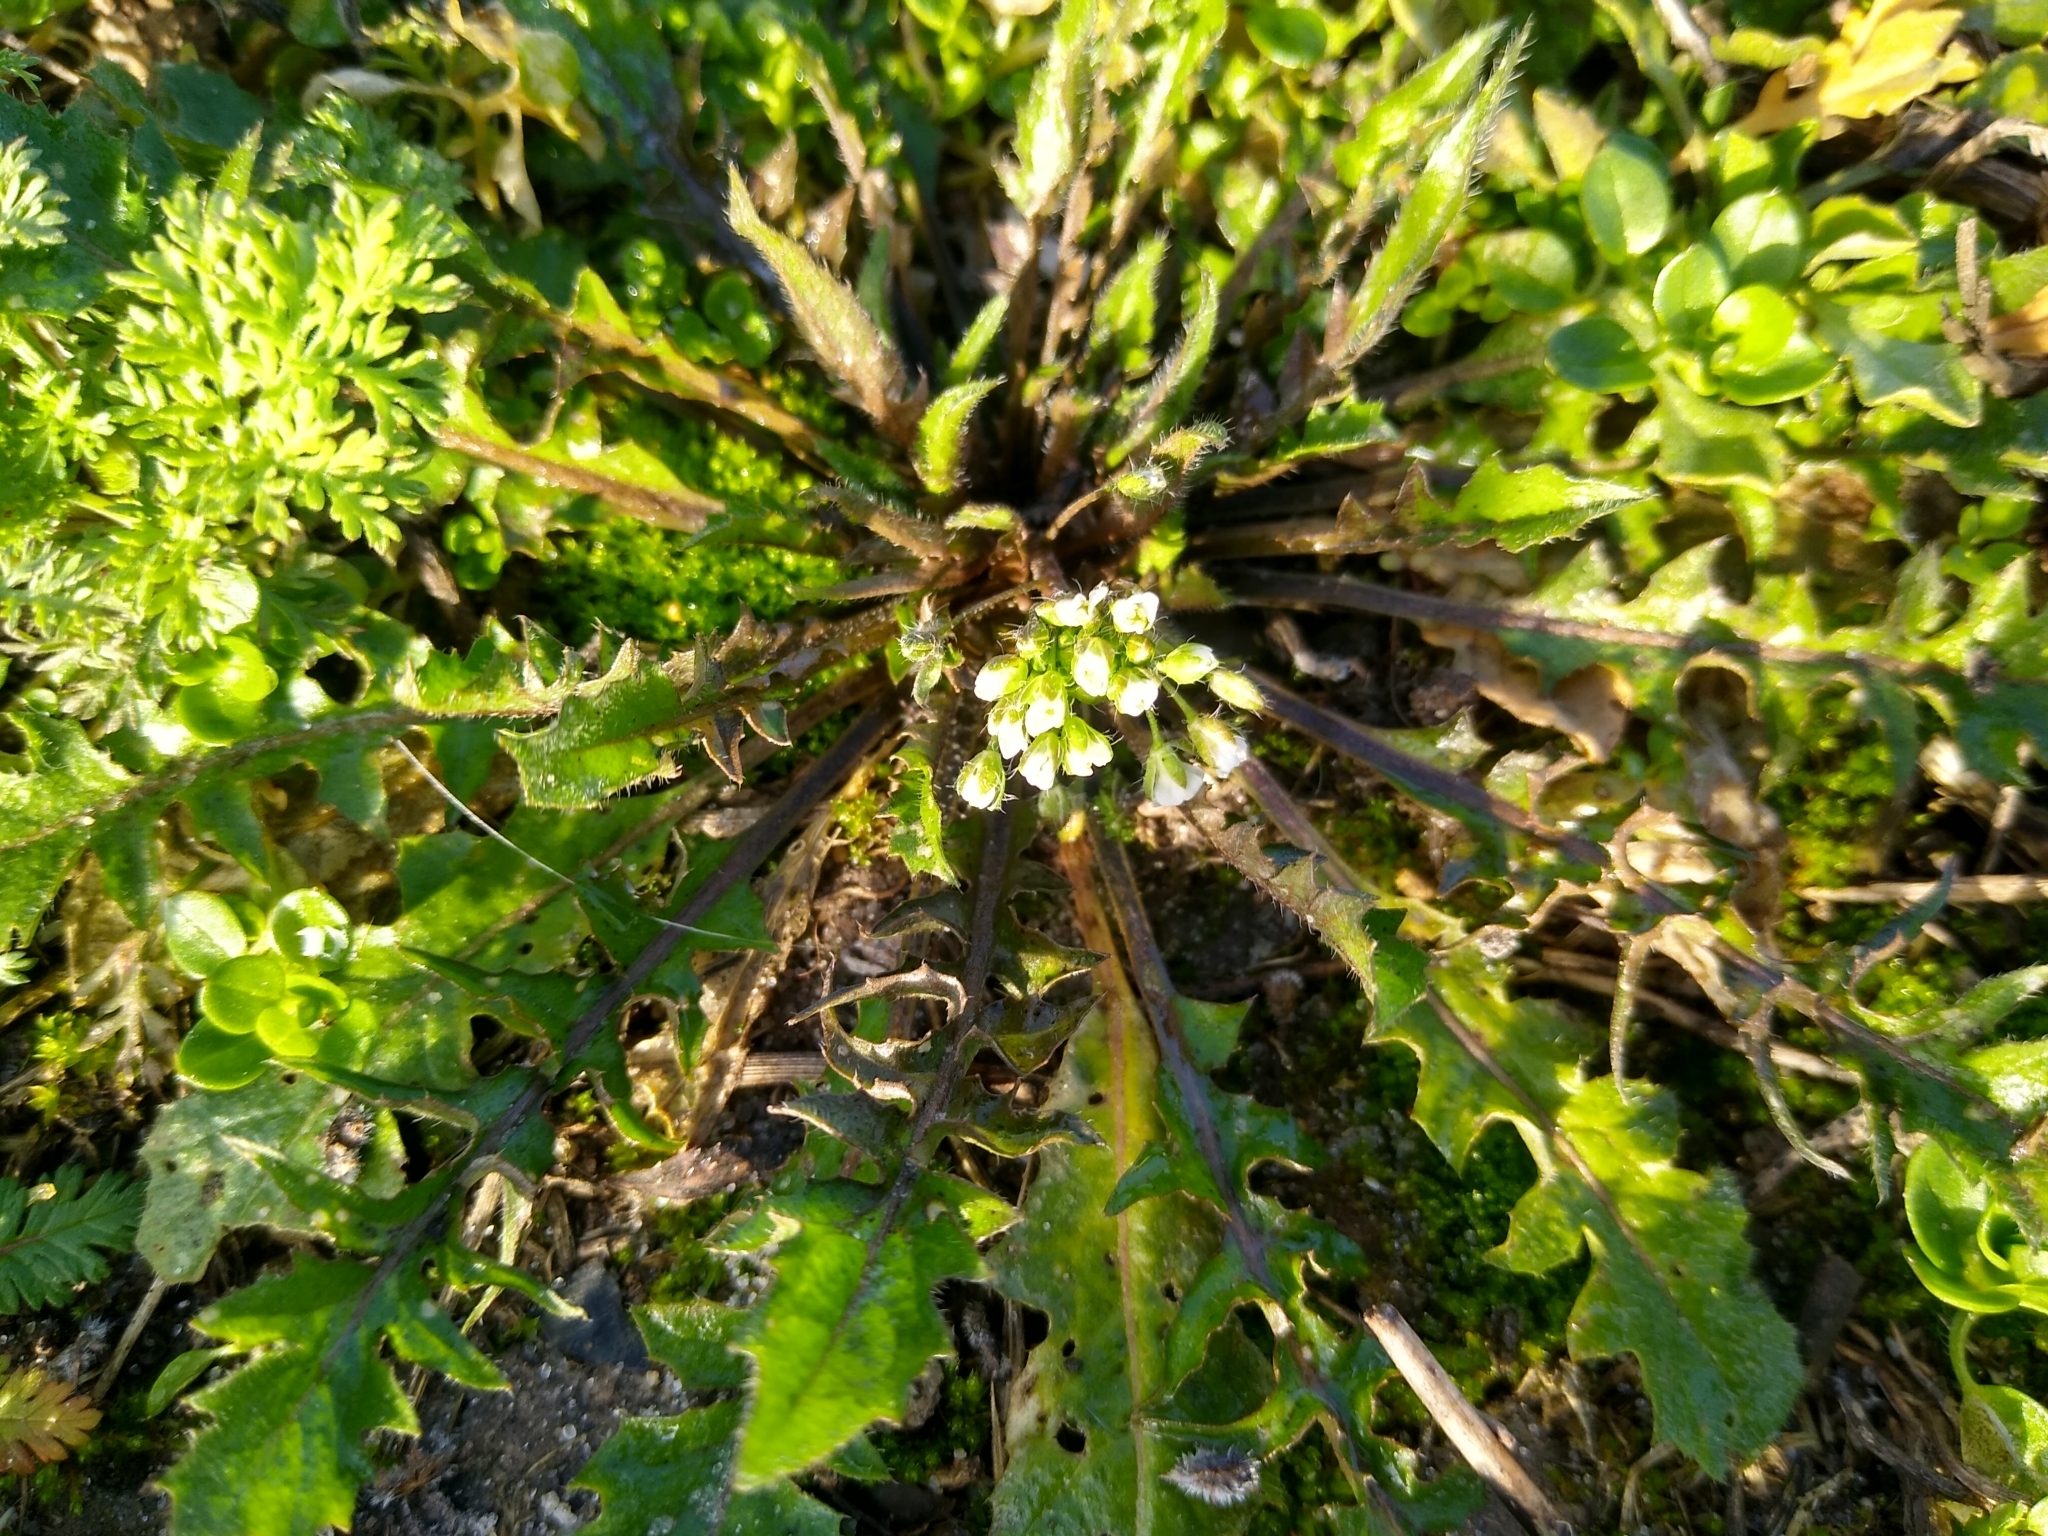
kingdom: Plantae
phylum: Tracheophyta
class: Magnoliopsida
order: Brassicales
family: Brassicaceae
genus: Capsella
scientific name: Capsella bursa-pastoris
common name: Shepherd's purse
